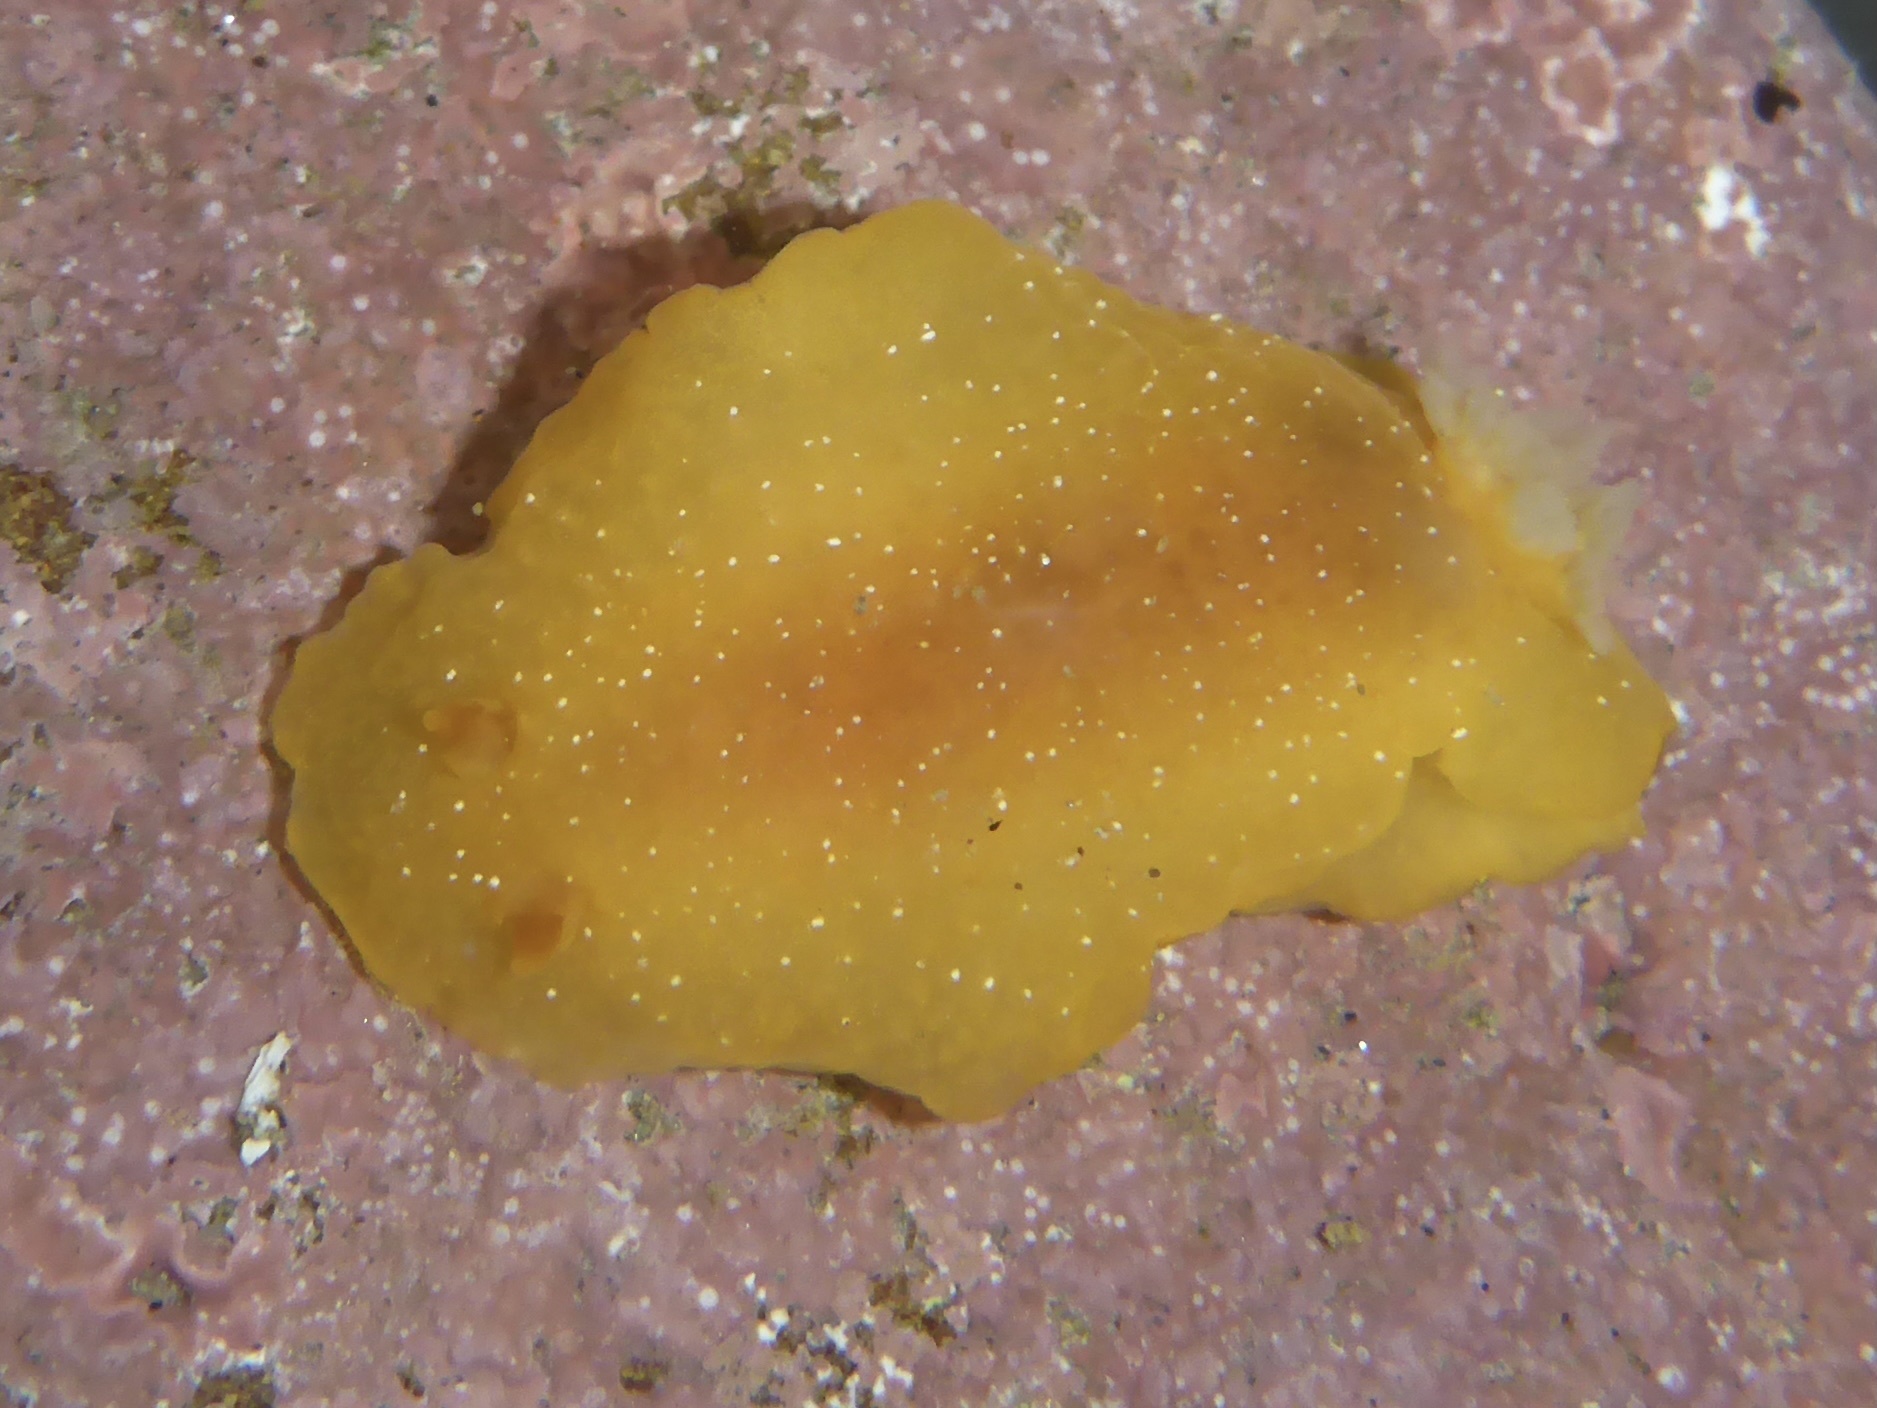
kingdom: Animalia
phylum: Mollusca
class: Gastropoda
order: Nudibranchia
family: Dendrodorididae
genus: Doriopsilla
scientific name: Doriopsilla fulva
